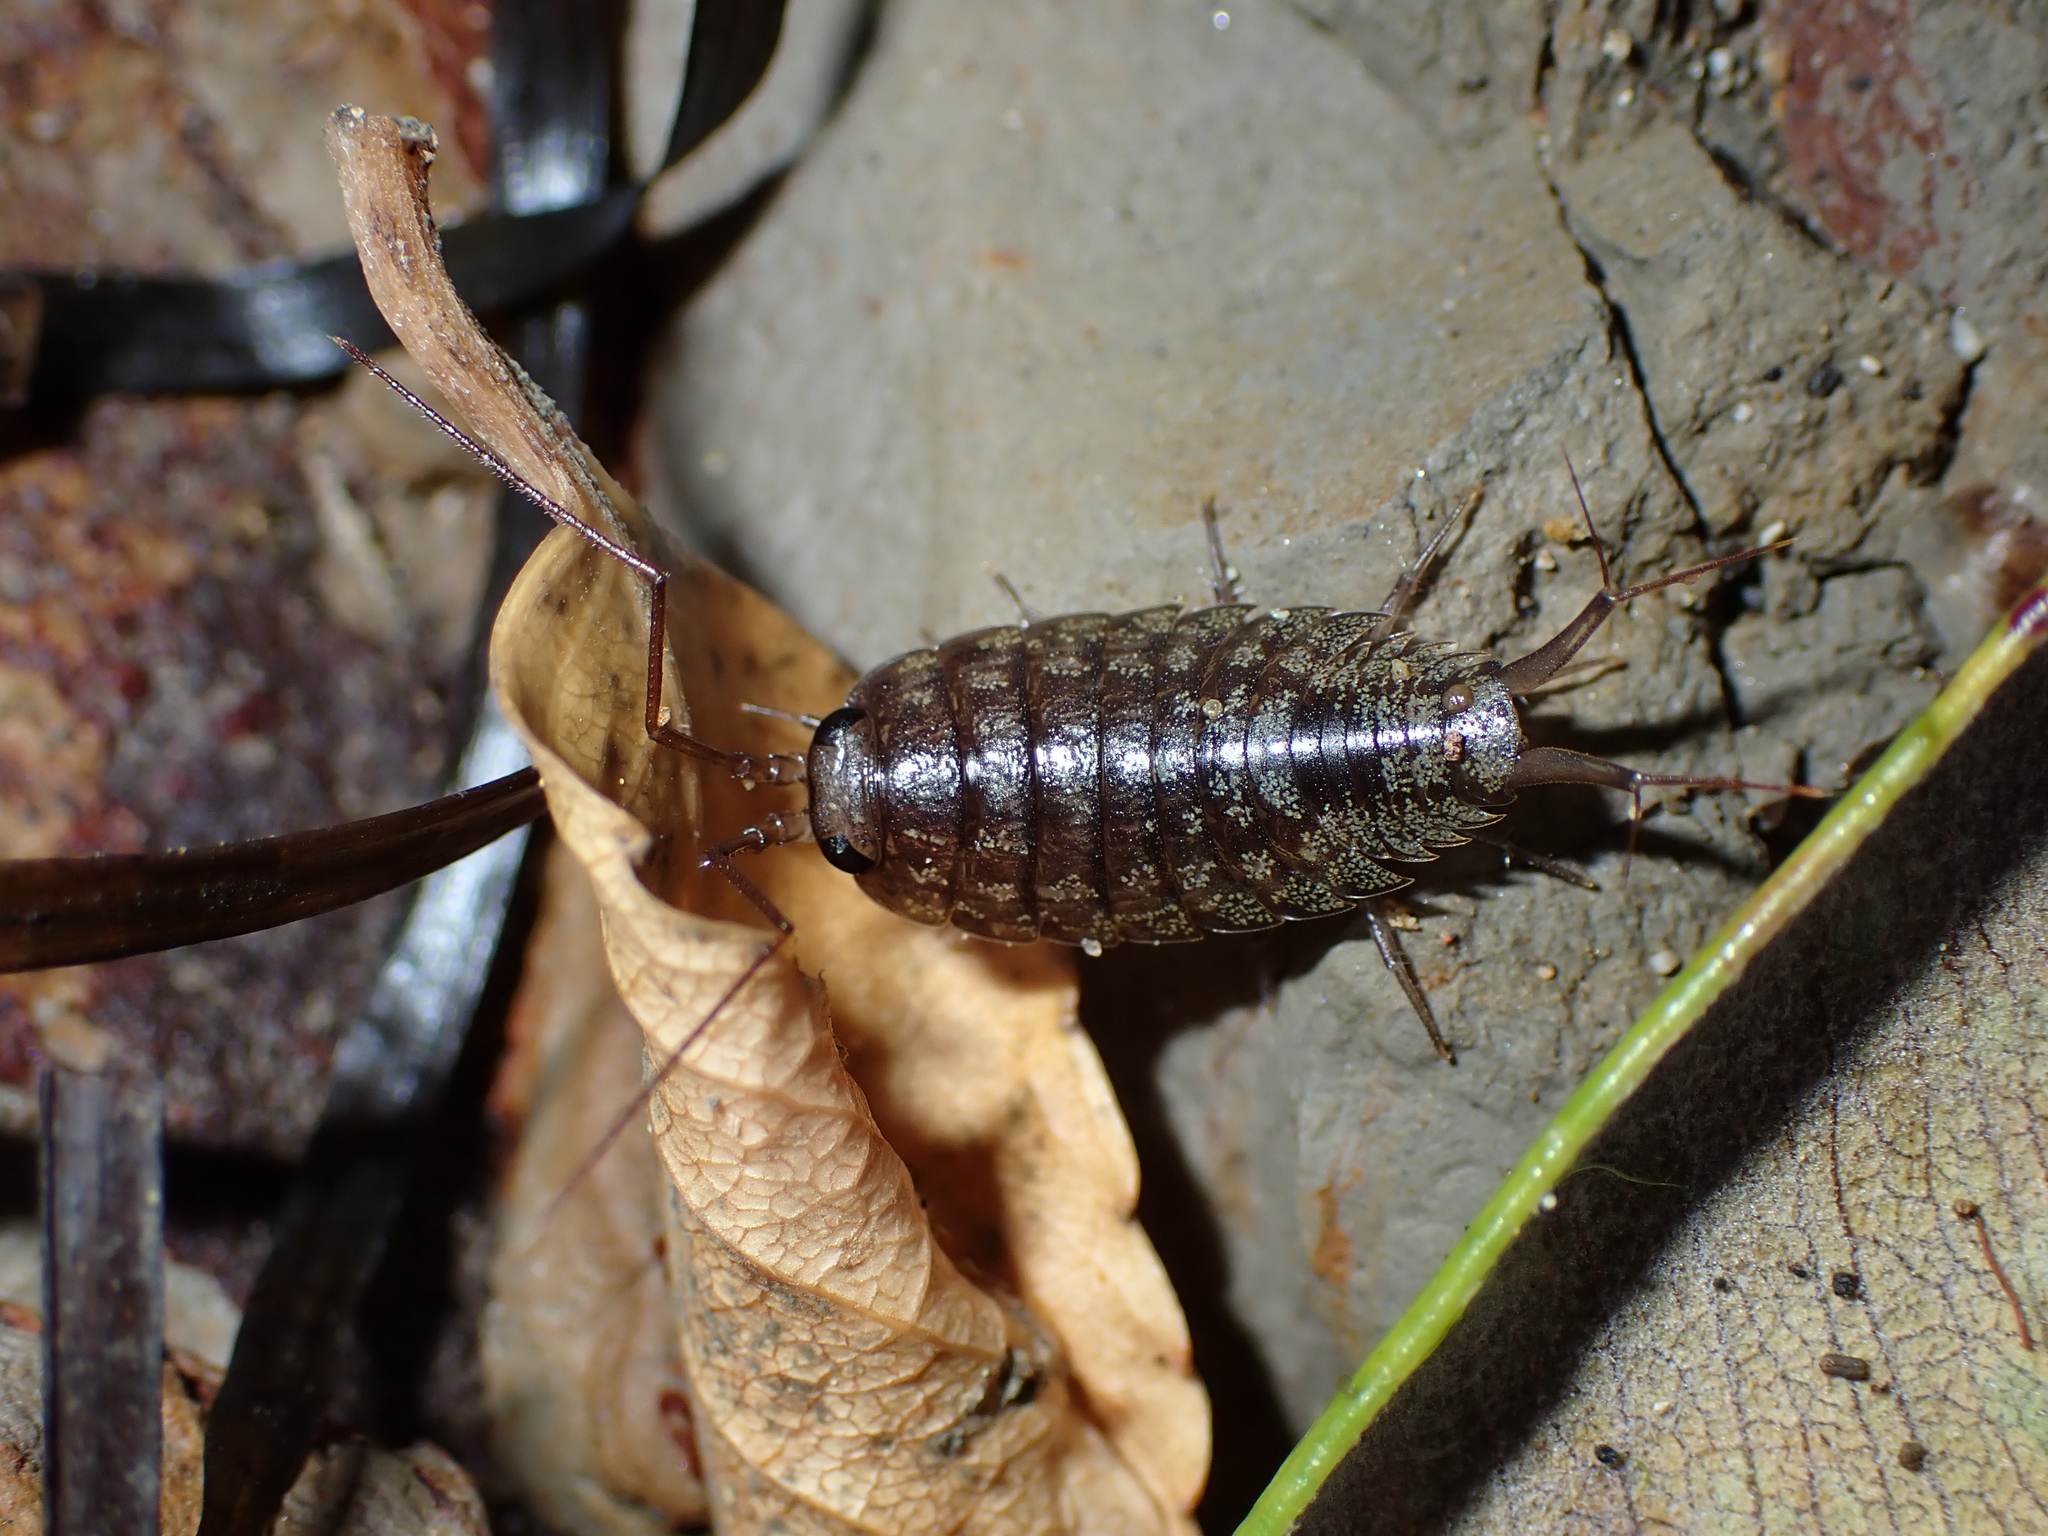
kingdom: Animalia
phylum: Arthropoda
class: Malacostraca
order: Isopoda
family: Ligiidae
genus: Ligia
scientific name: Ligia novizealandiae
